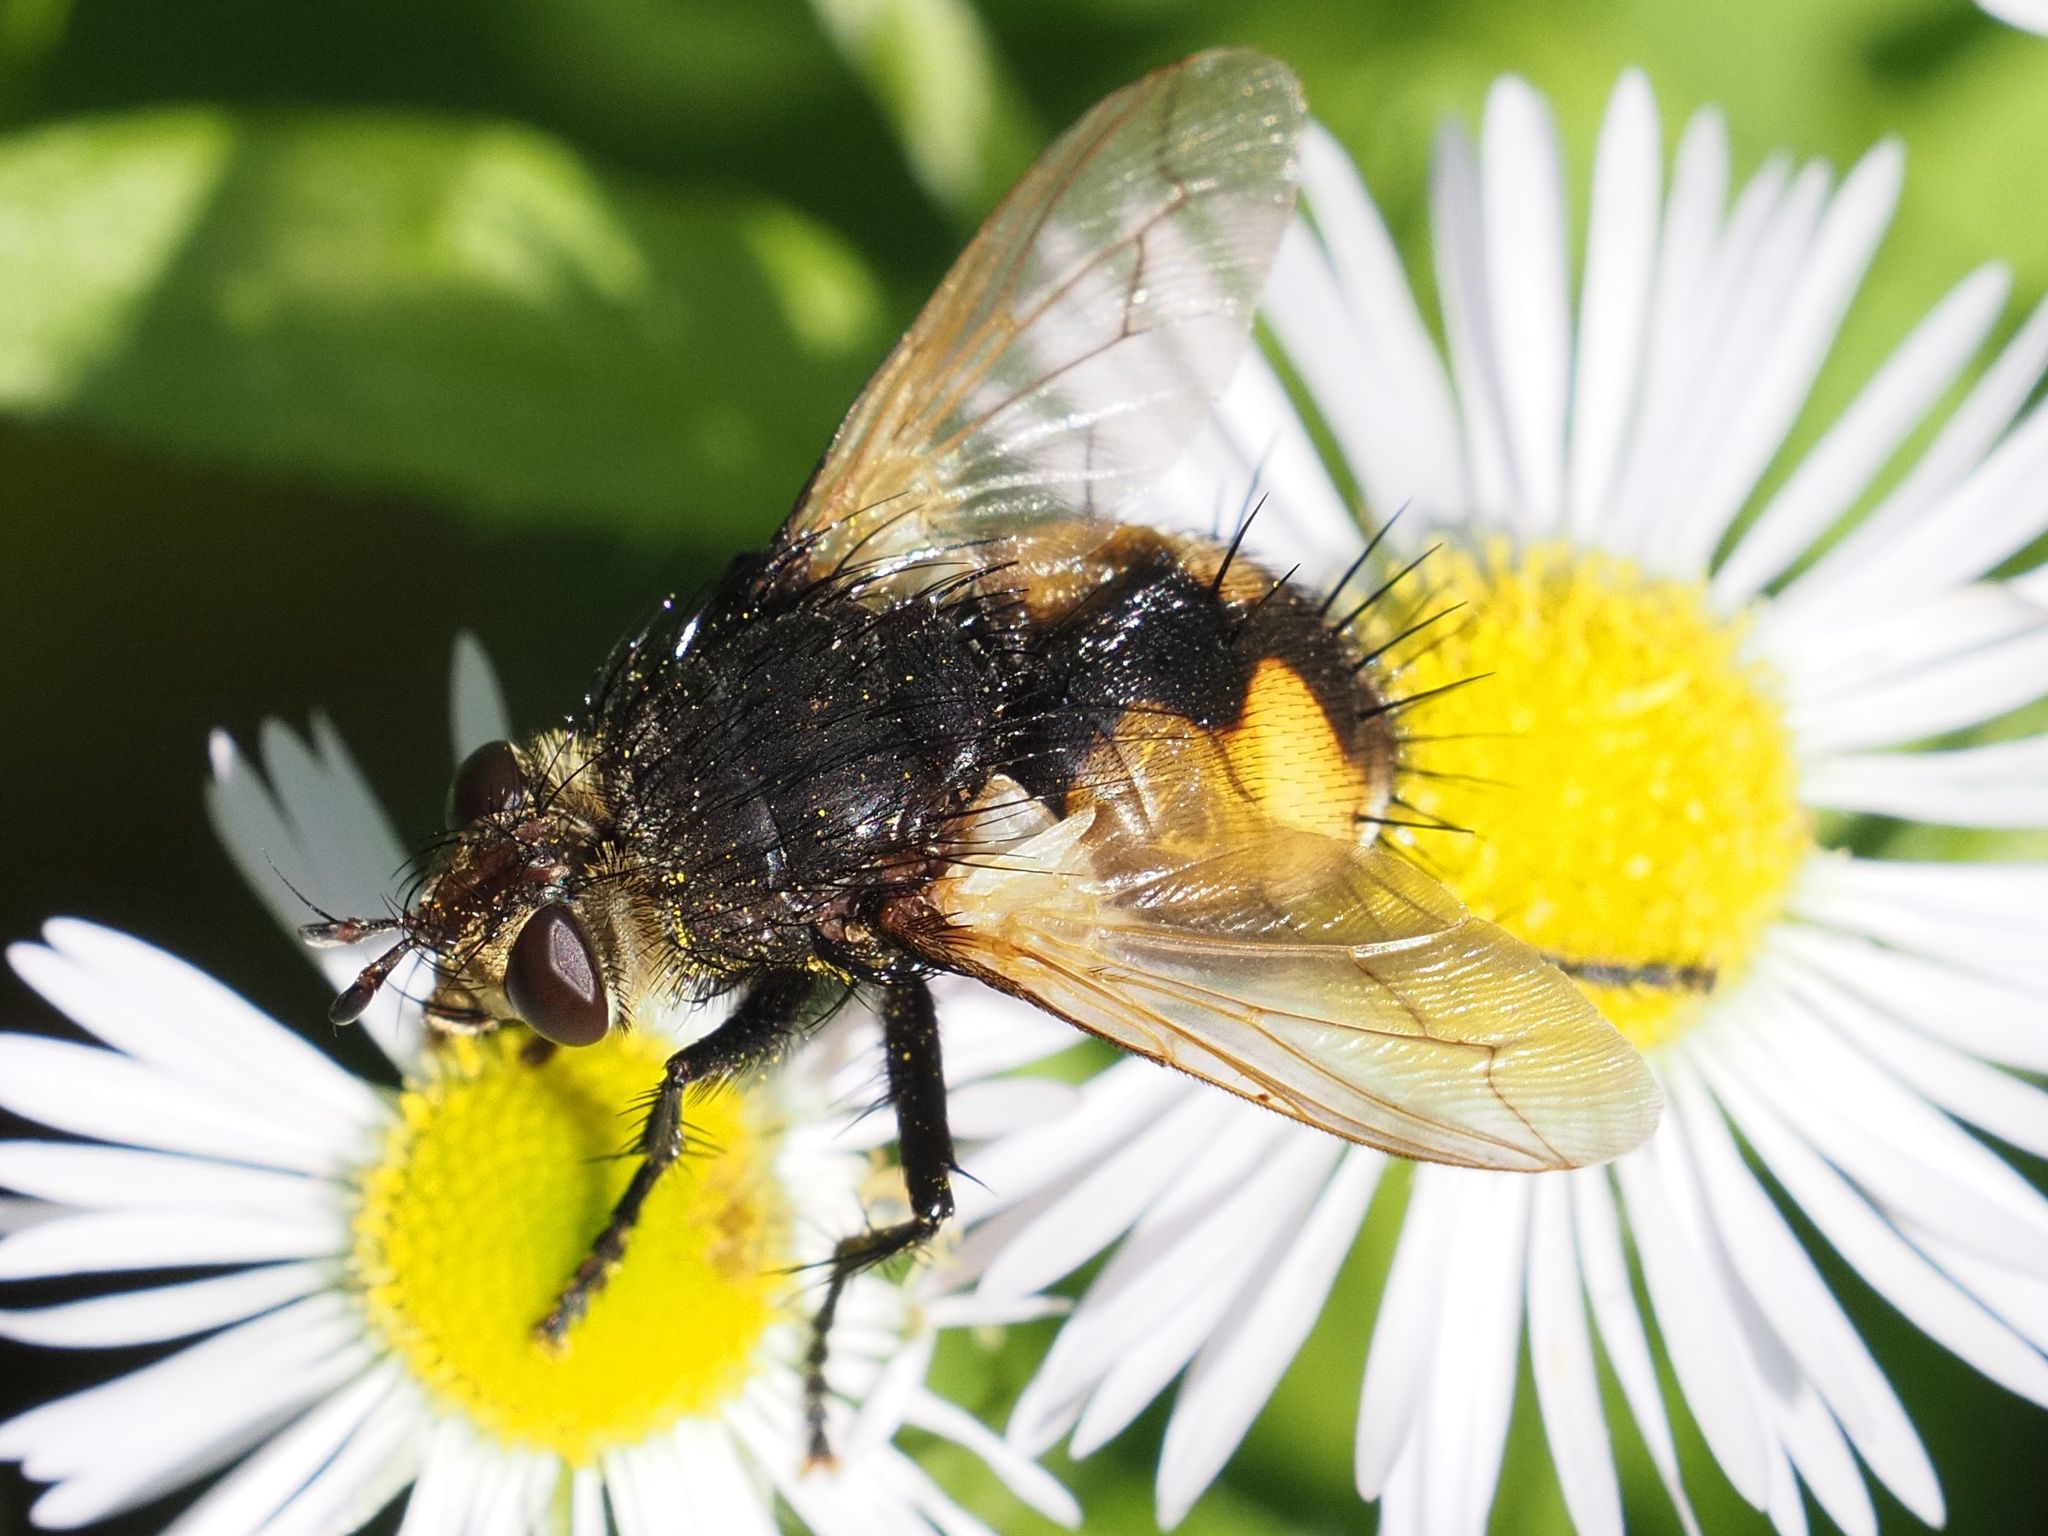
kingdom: Animalia
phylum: Arthropoda
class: Insecta
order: Diptera
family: Tachinidae
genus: Nowickia
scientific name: Nowickia ferox
